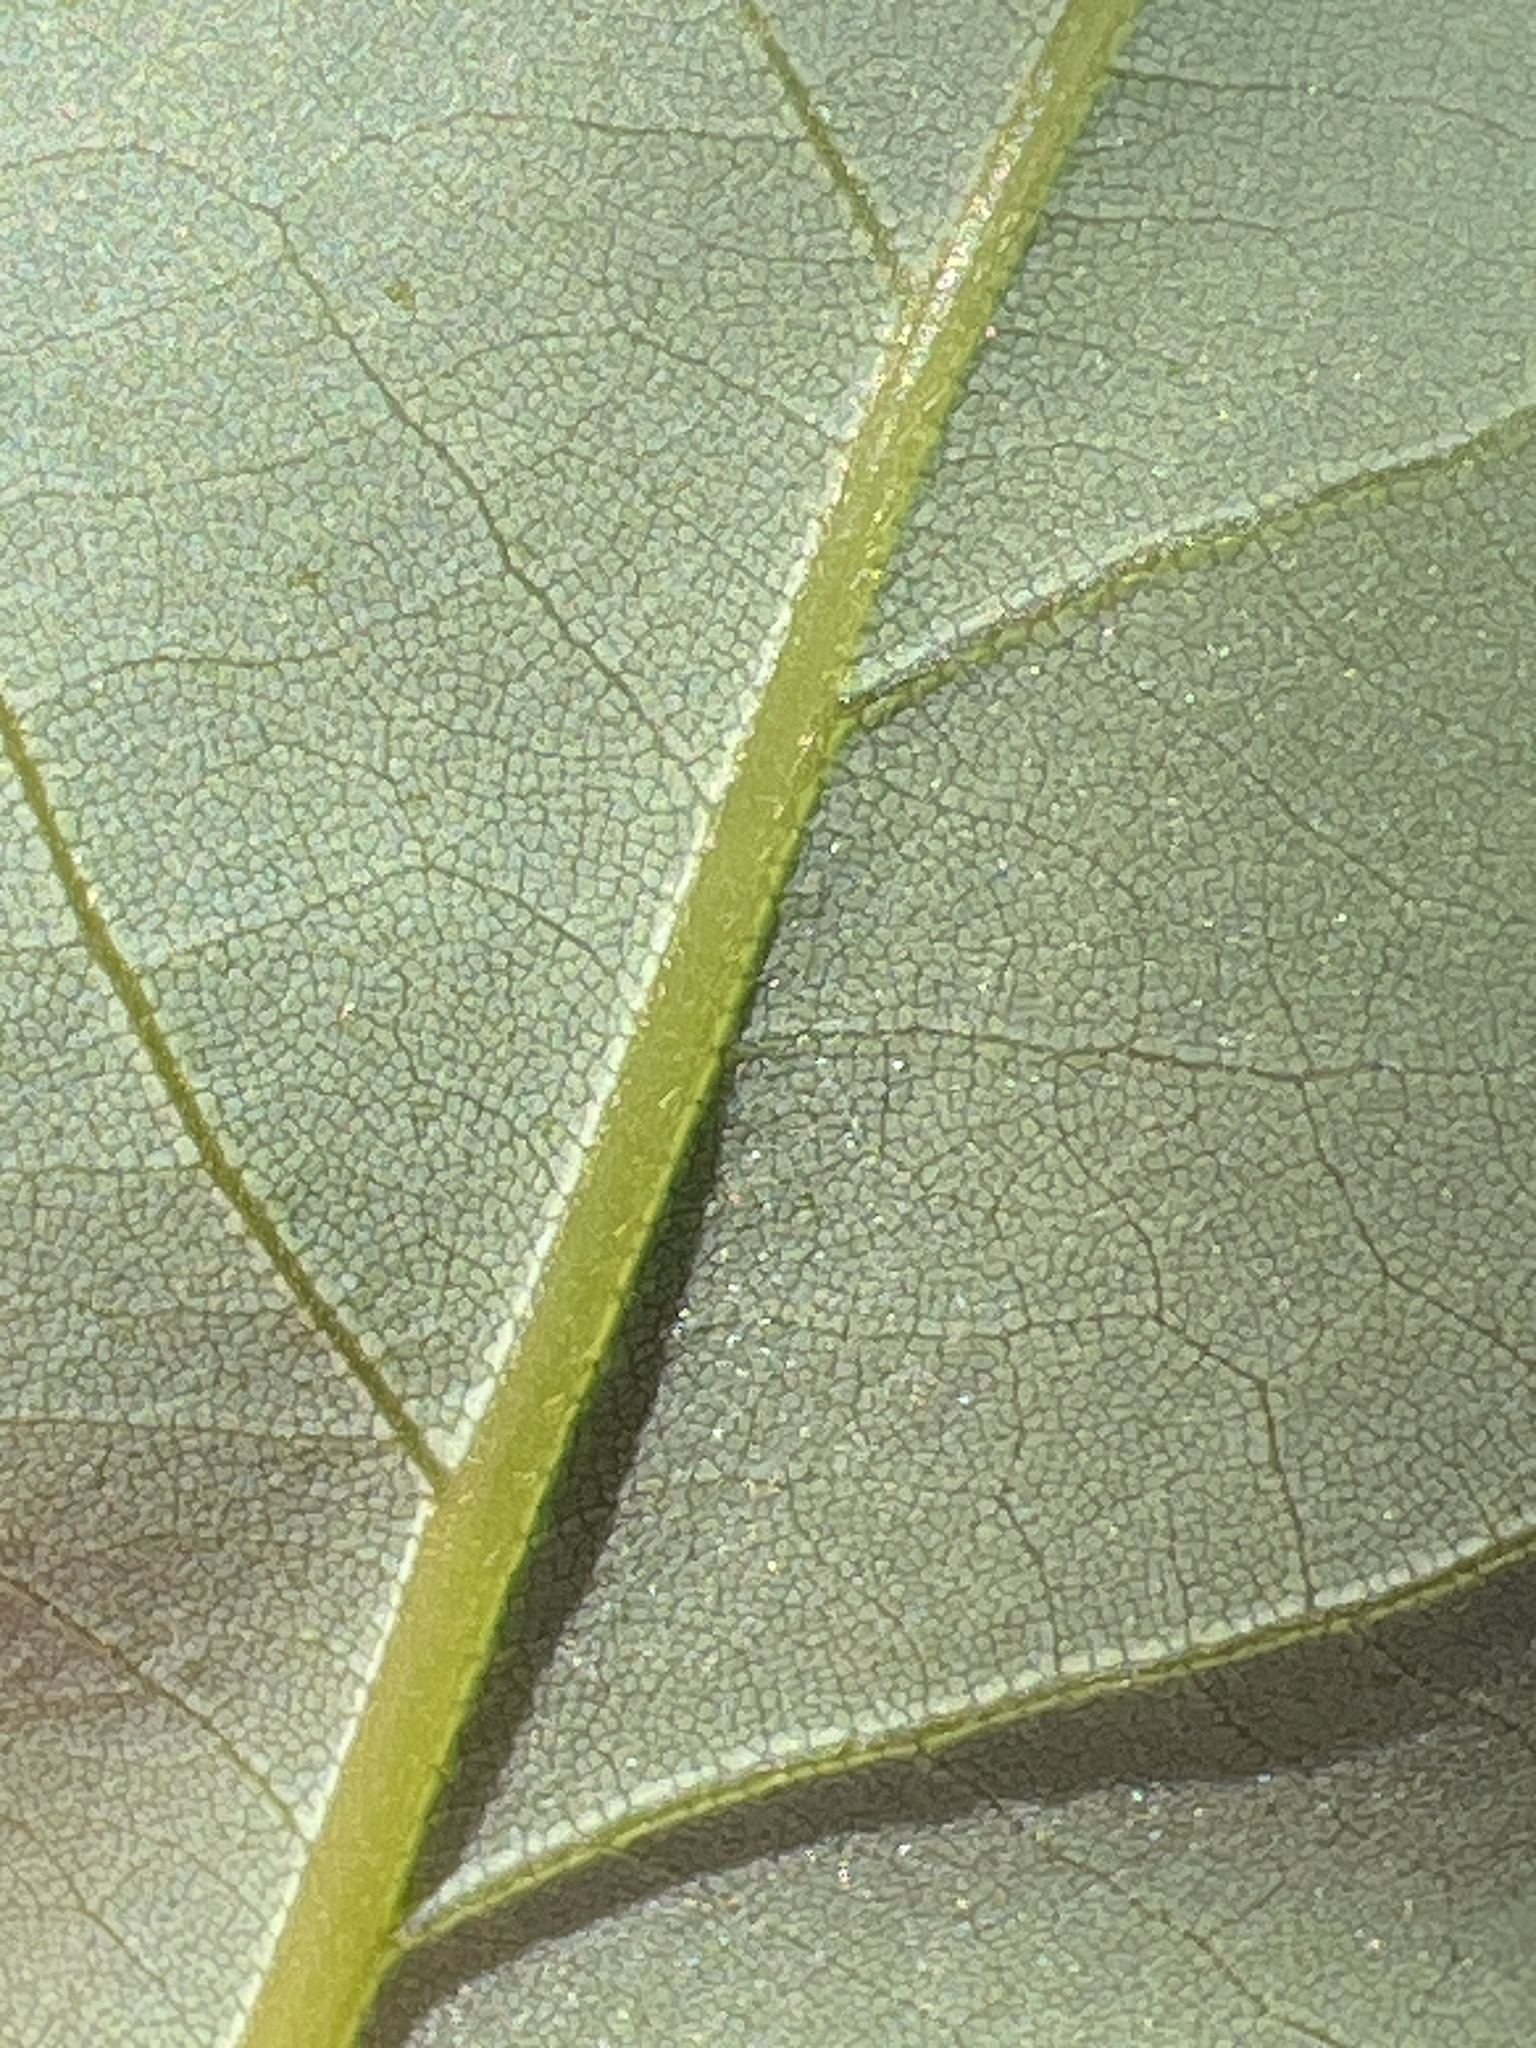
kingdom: Plantae
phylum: Tracheophyta
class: Magnoliopsida
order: Laurales
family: Lauraceae
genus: Persea
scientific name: Persea borbonia
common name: Redbay
